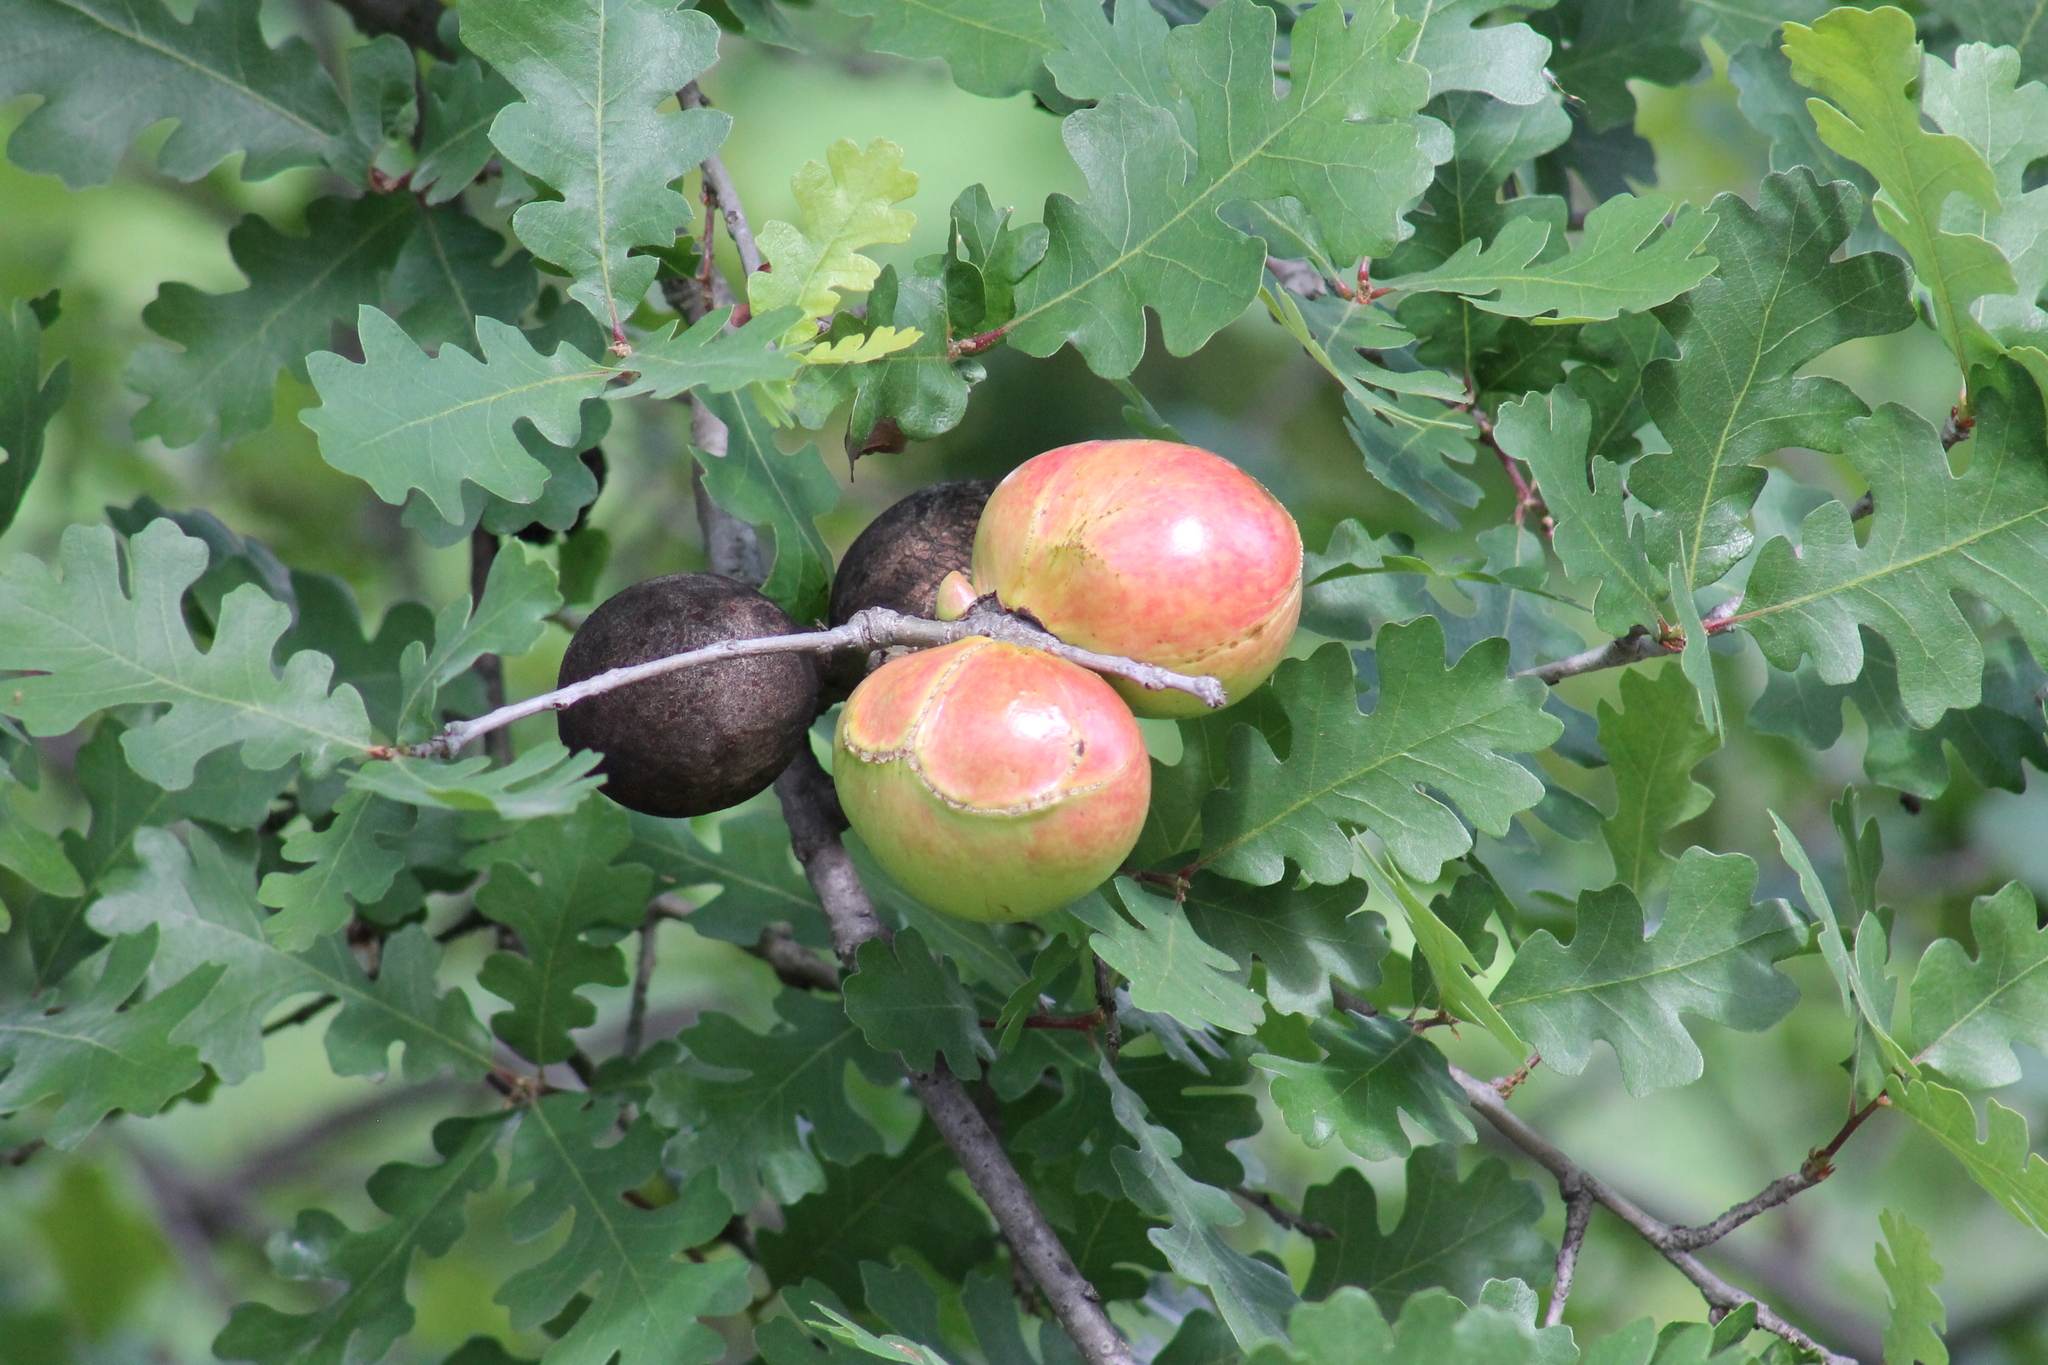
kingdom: Animalia
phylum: Arthropoda
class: Insecta
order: Hymenoptera
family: Cynipidae
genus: Andricus
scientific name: Andricus quercuscalifornicus
